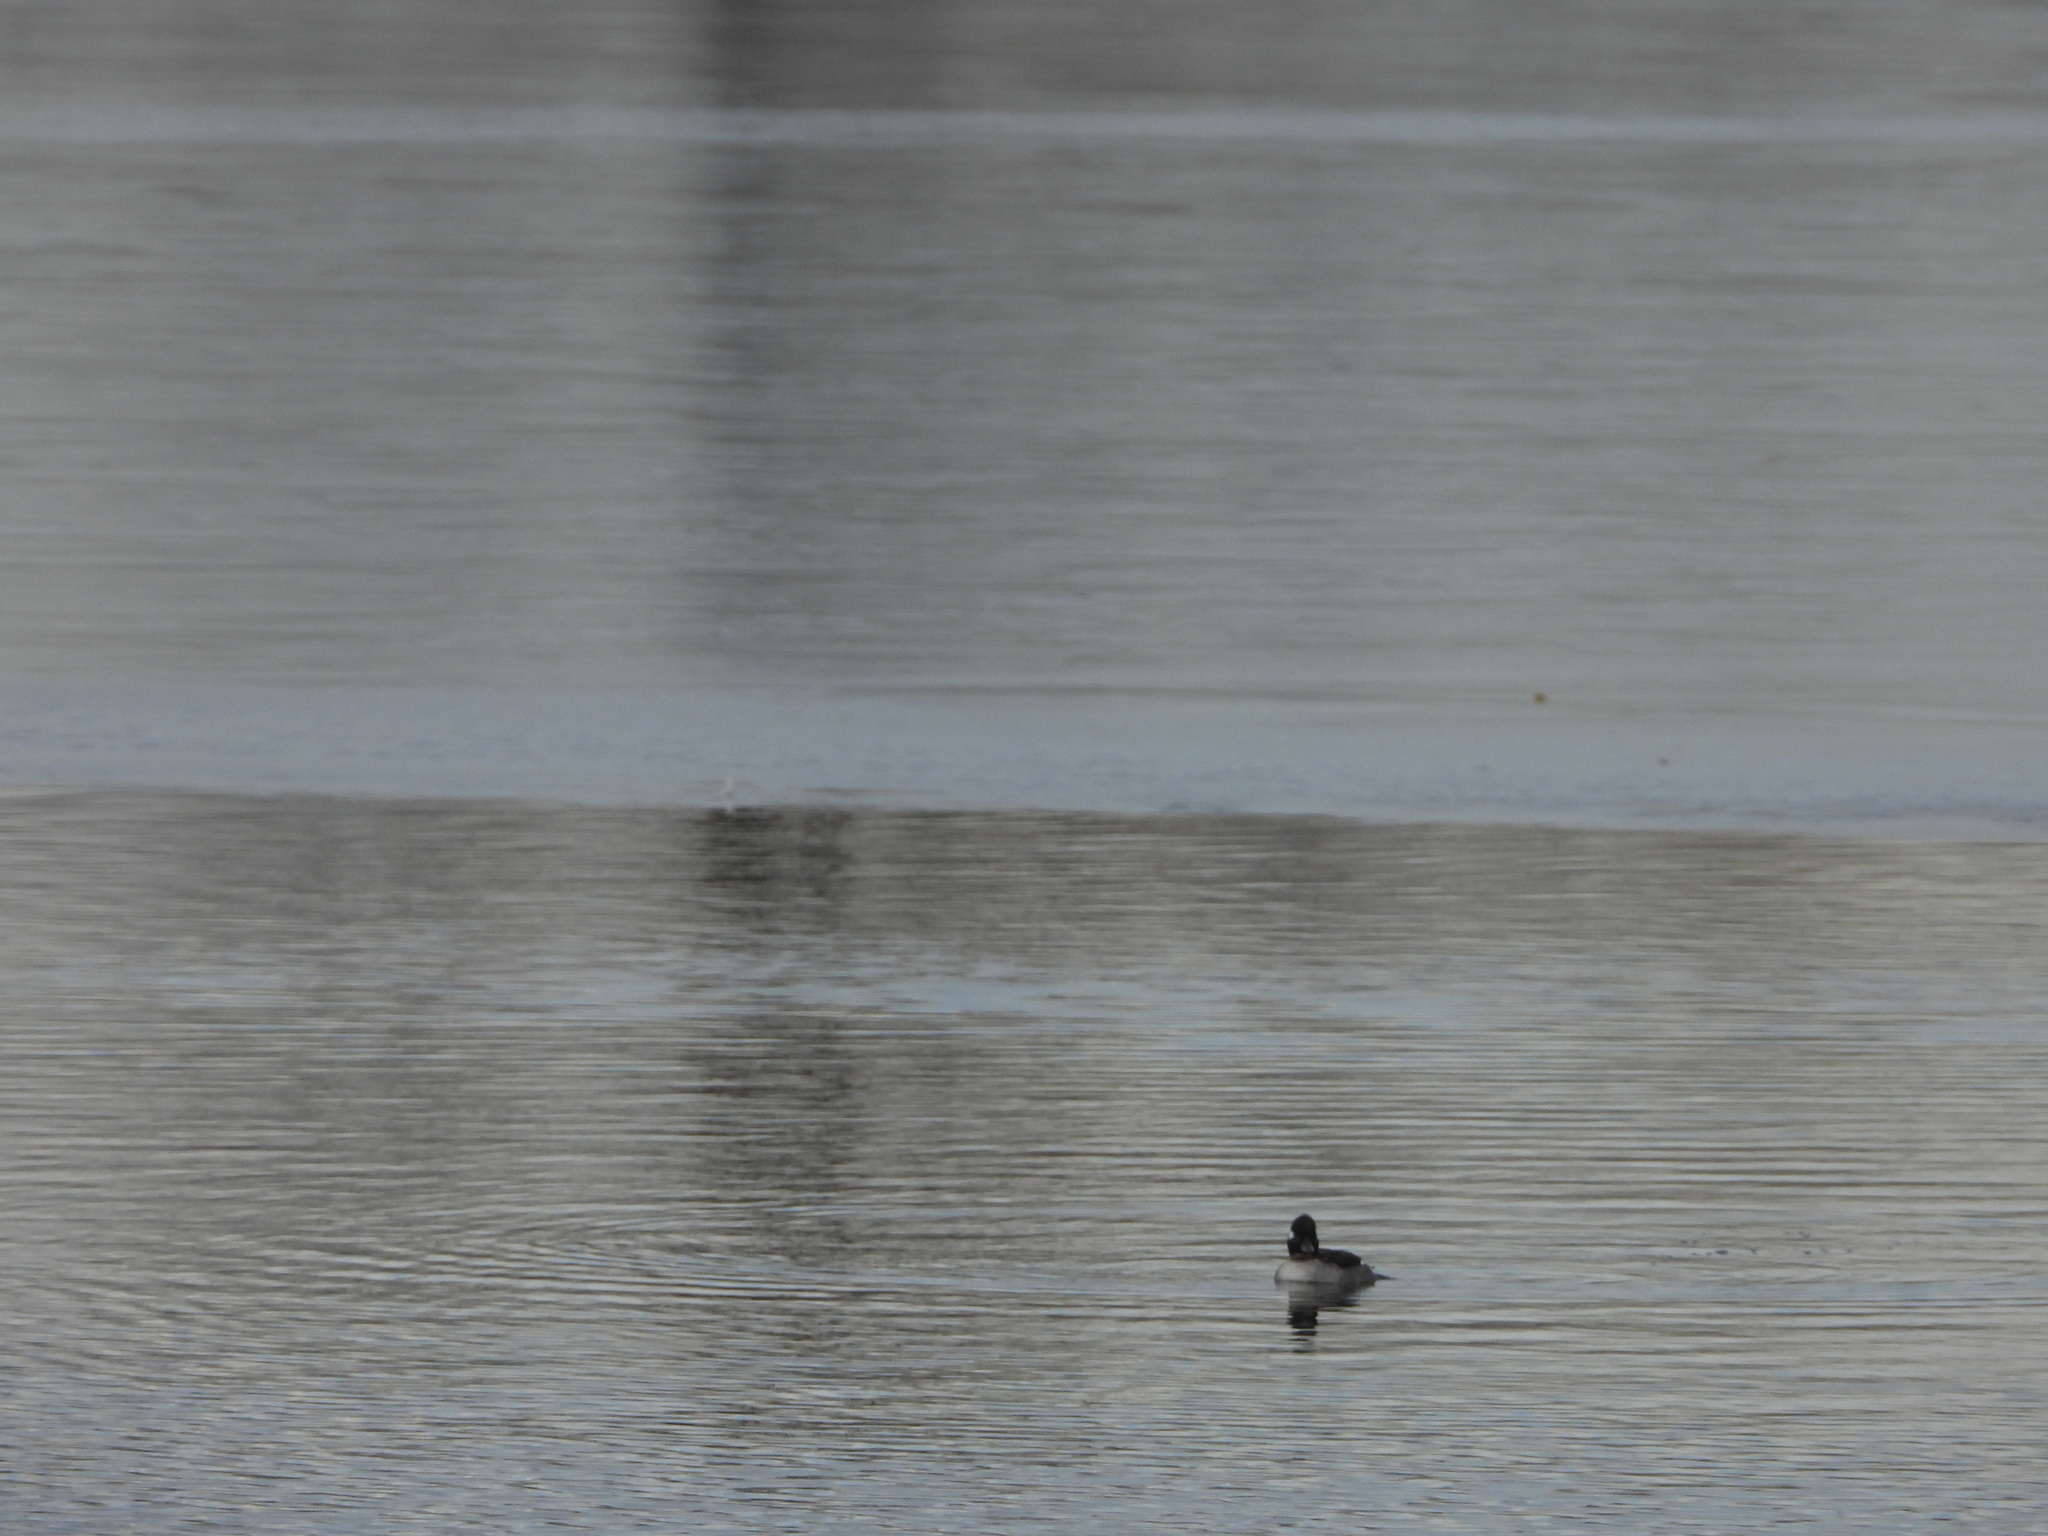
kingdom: Animalia
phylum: Chordata
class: Aves
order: Anseriformes
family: Anatidae
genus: Bucephala
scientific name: Bucephala albeola
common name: Bufflehead
